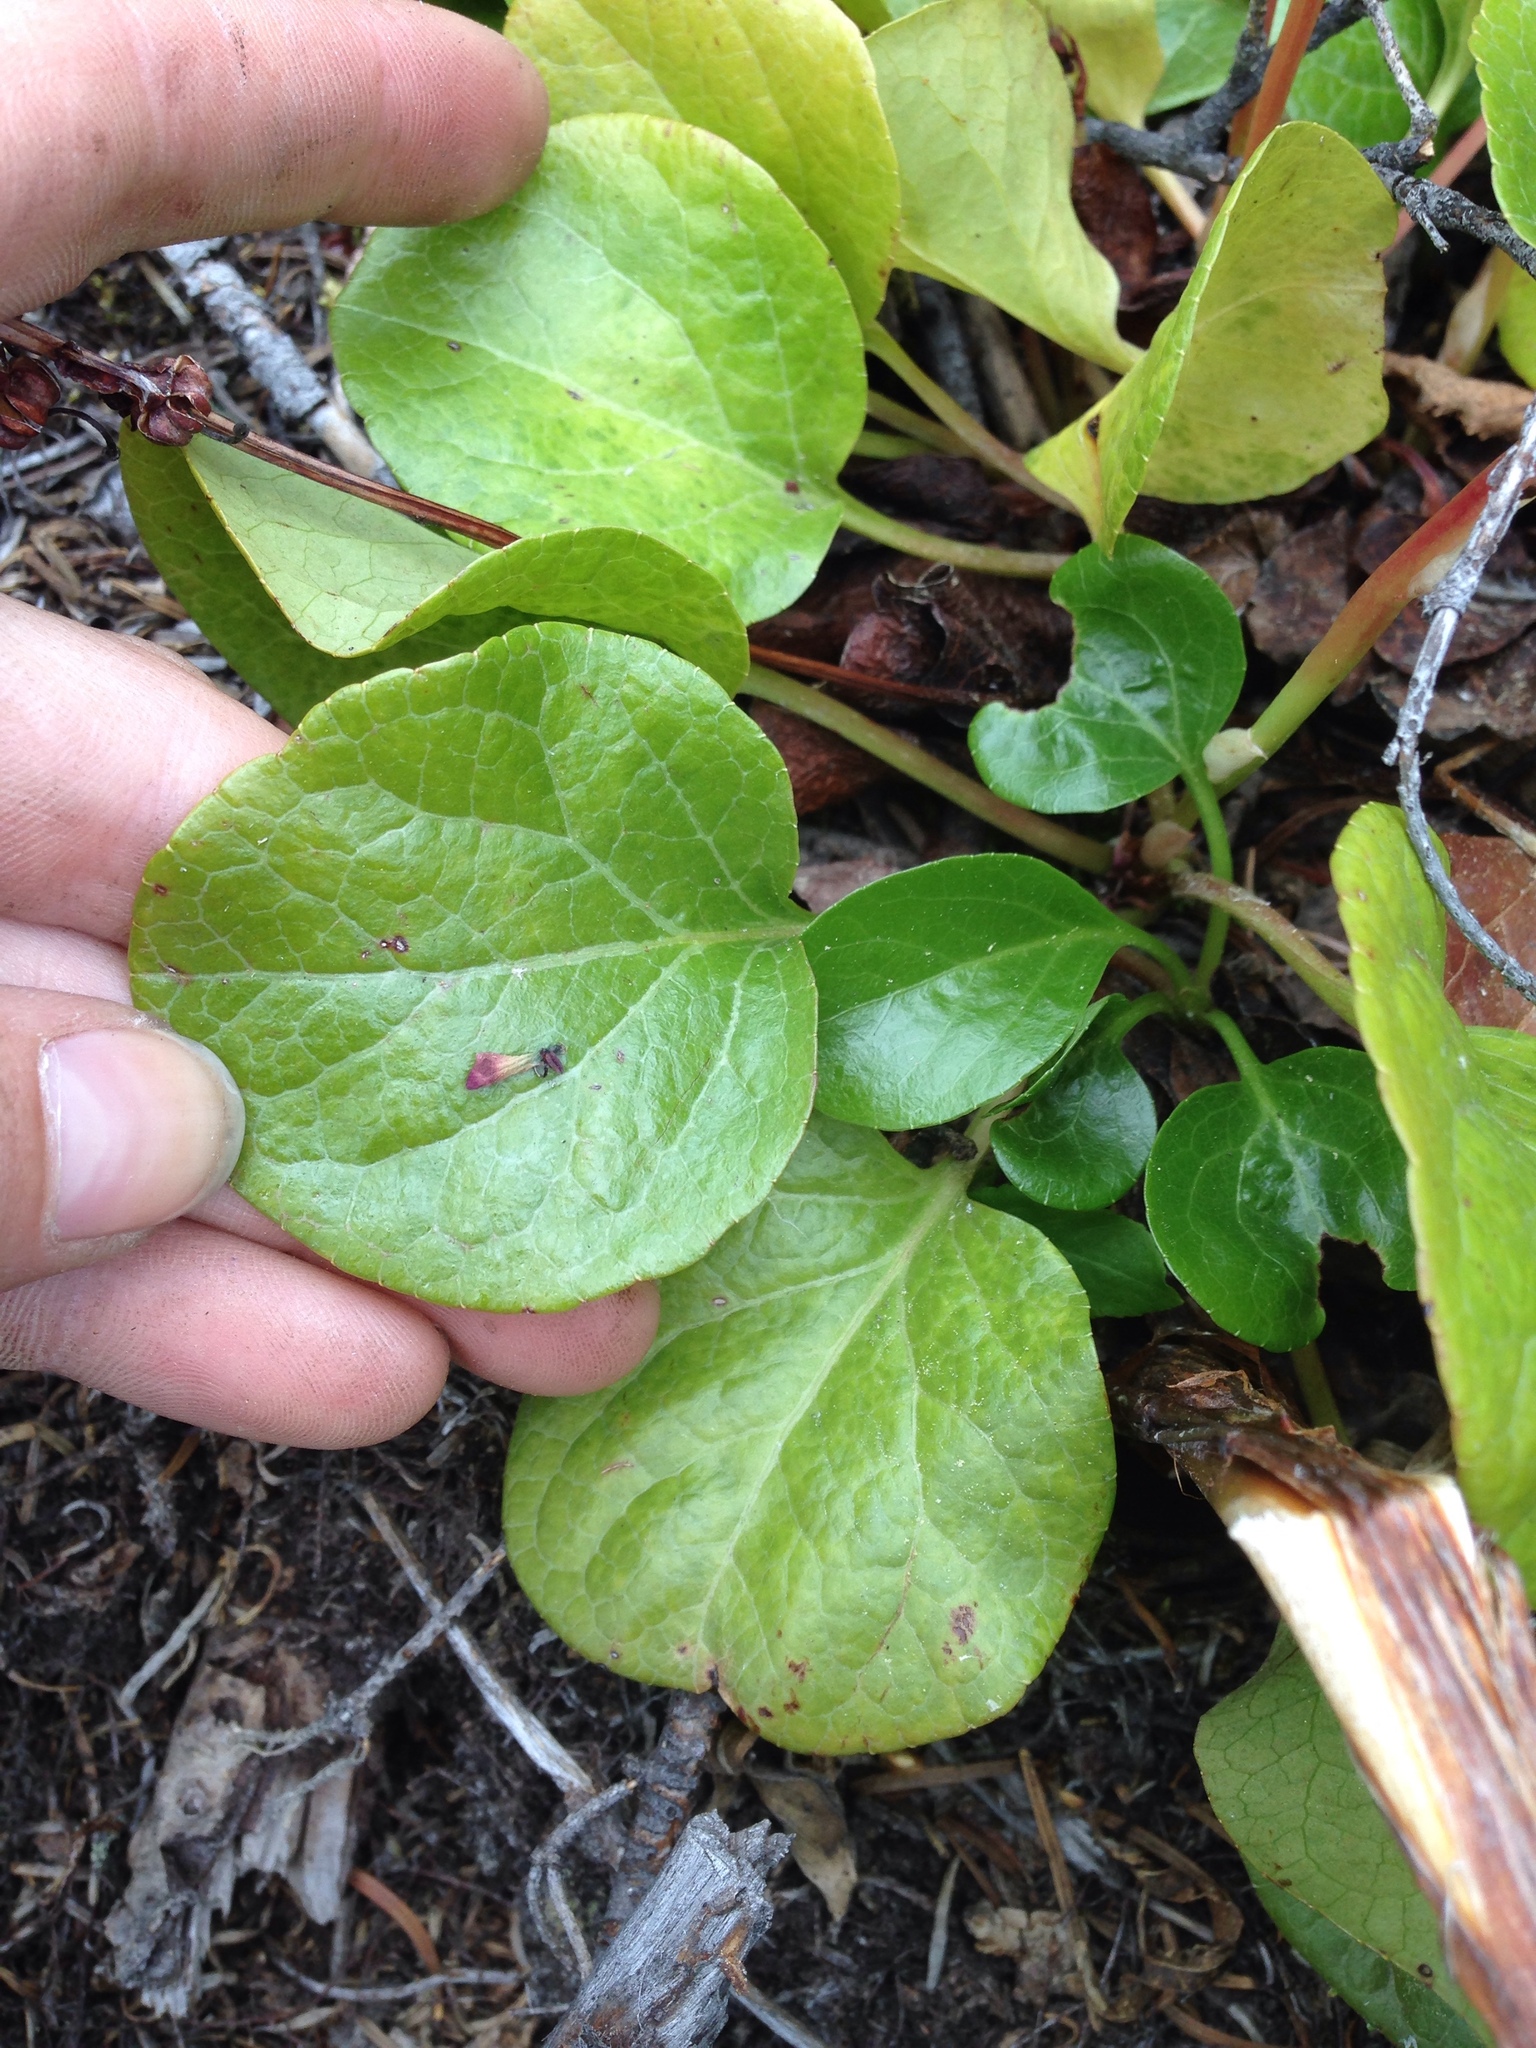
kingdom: Plantae
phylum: Tracheophyta
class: Magnoliopsida
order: Ericales
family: Ericaceae
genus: Pyrola
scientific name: Pyrola asarifolia
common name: Bog wintergreen
